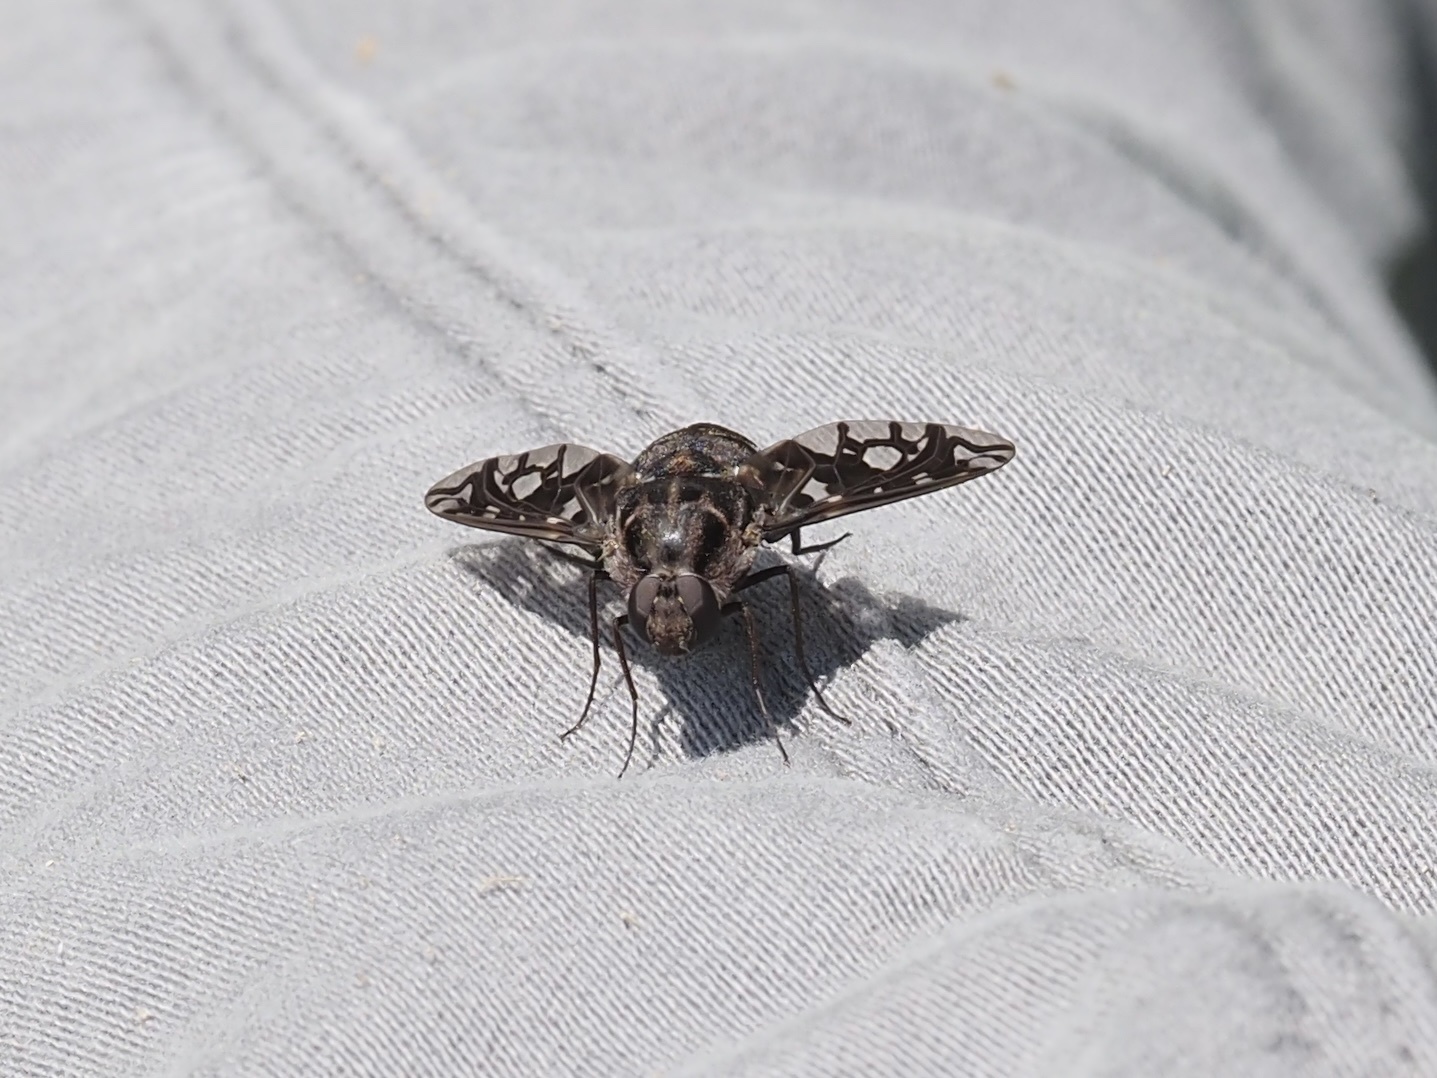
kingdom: Animalia
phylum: Arthropoda
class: Insecta
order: Diptera
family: Bombyliidae
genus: Xenox
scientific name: Xenox tigrinus
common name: Tiger bee fly
